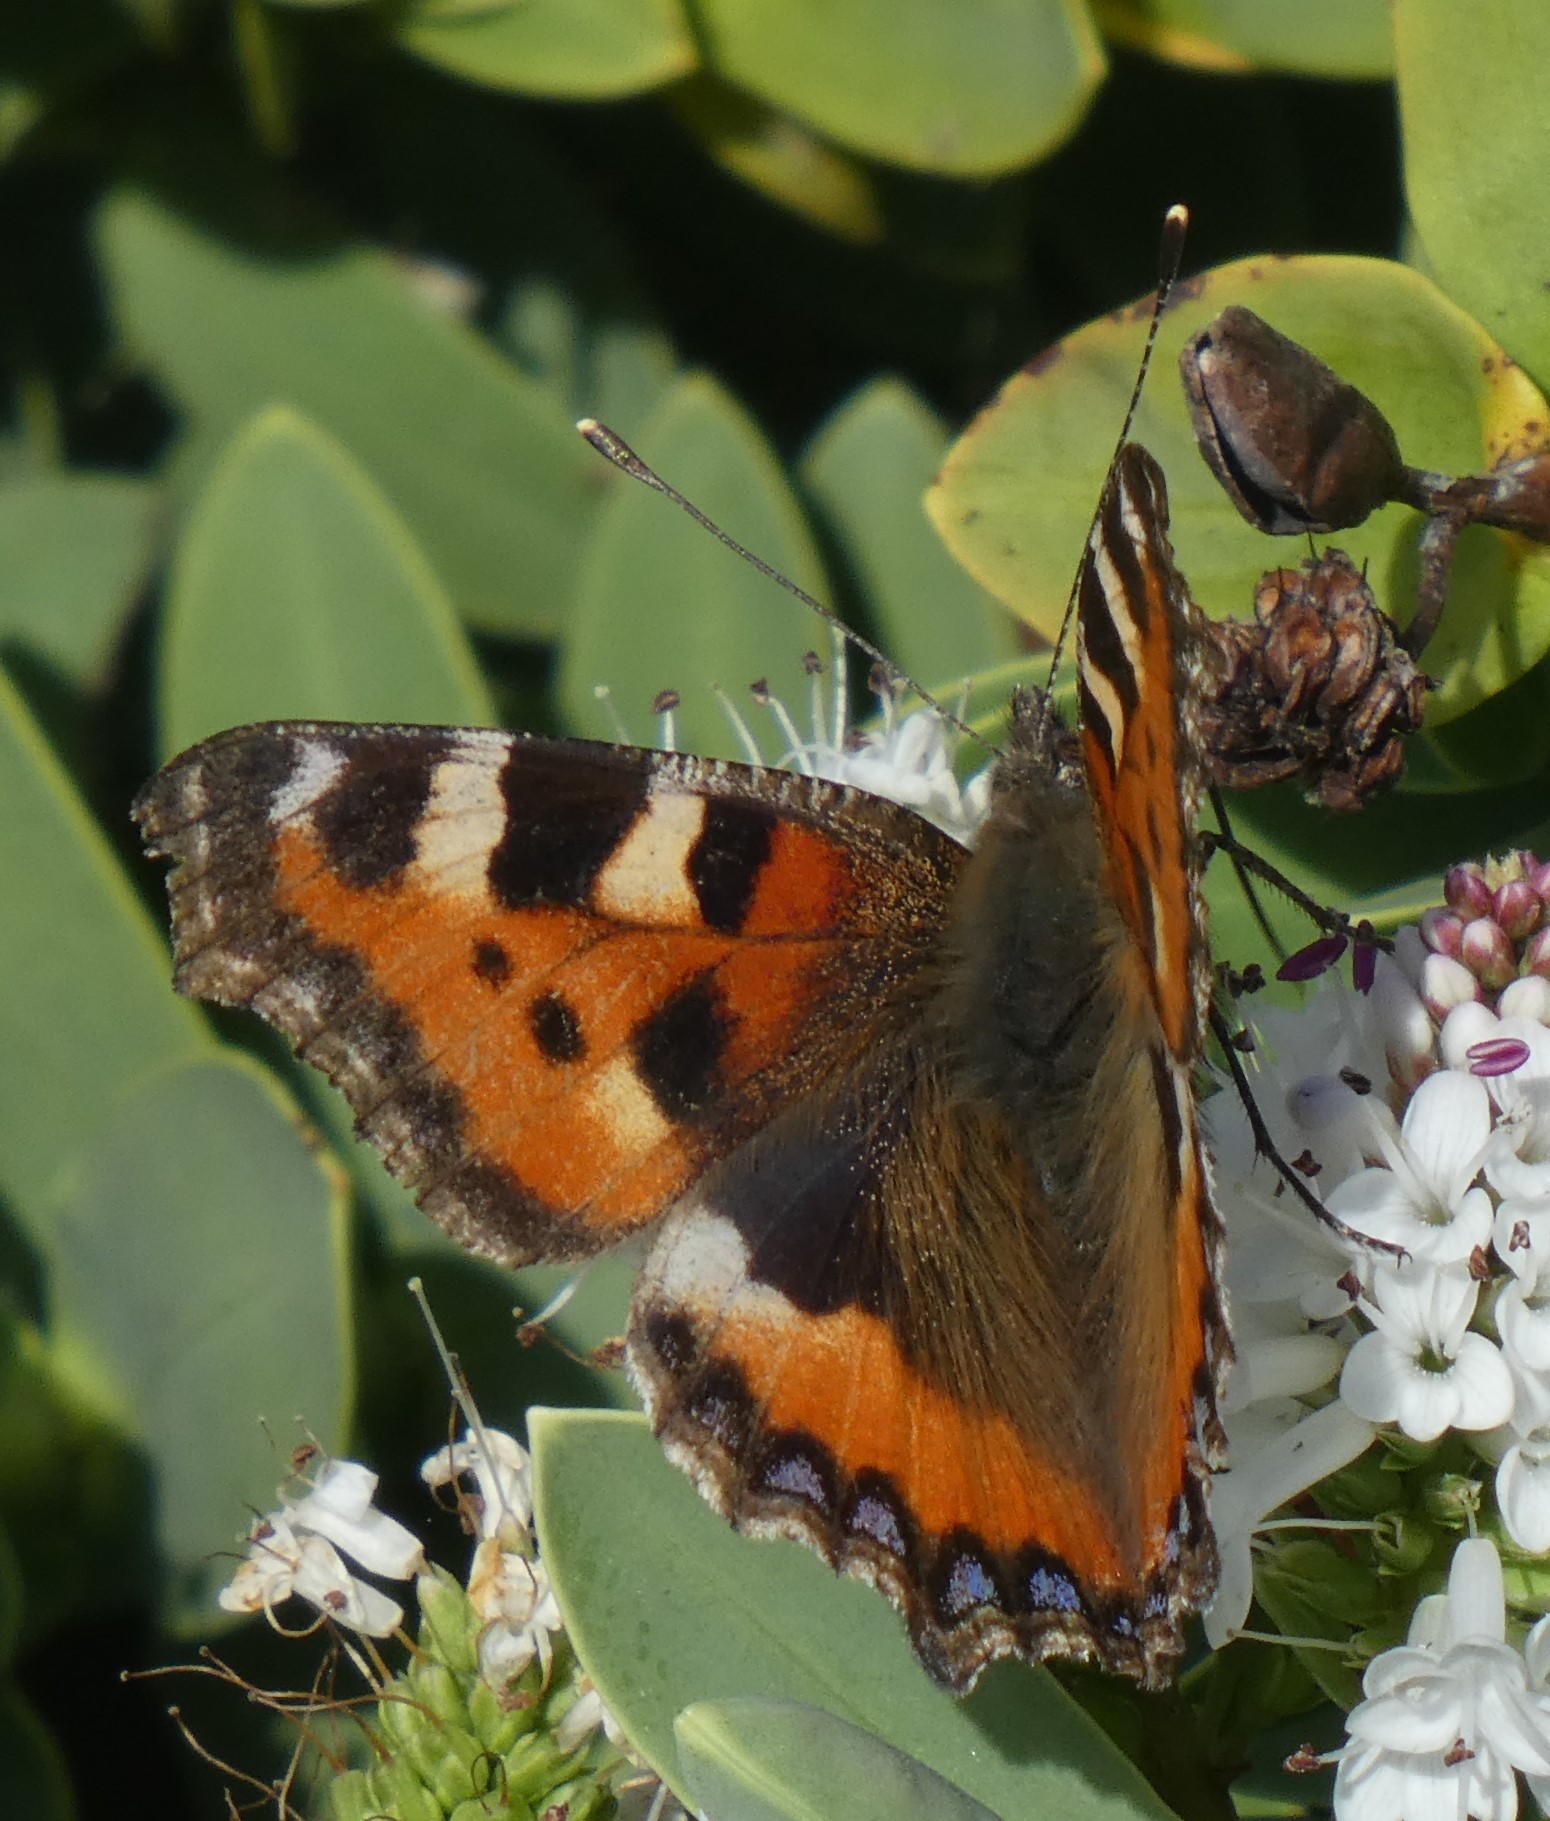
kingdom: Animalia
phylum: Arthropoda
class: Insecta
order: Lepidoptera
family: Nymphalidae
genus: Aglais
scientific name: Aglais urticae
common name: Small tortoiseshell
